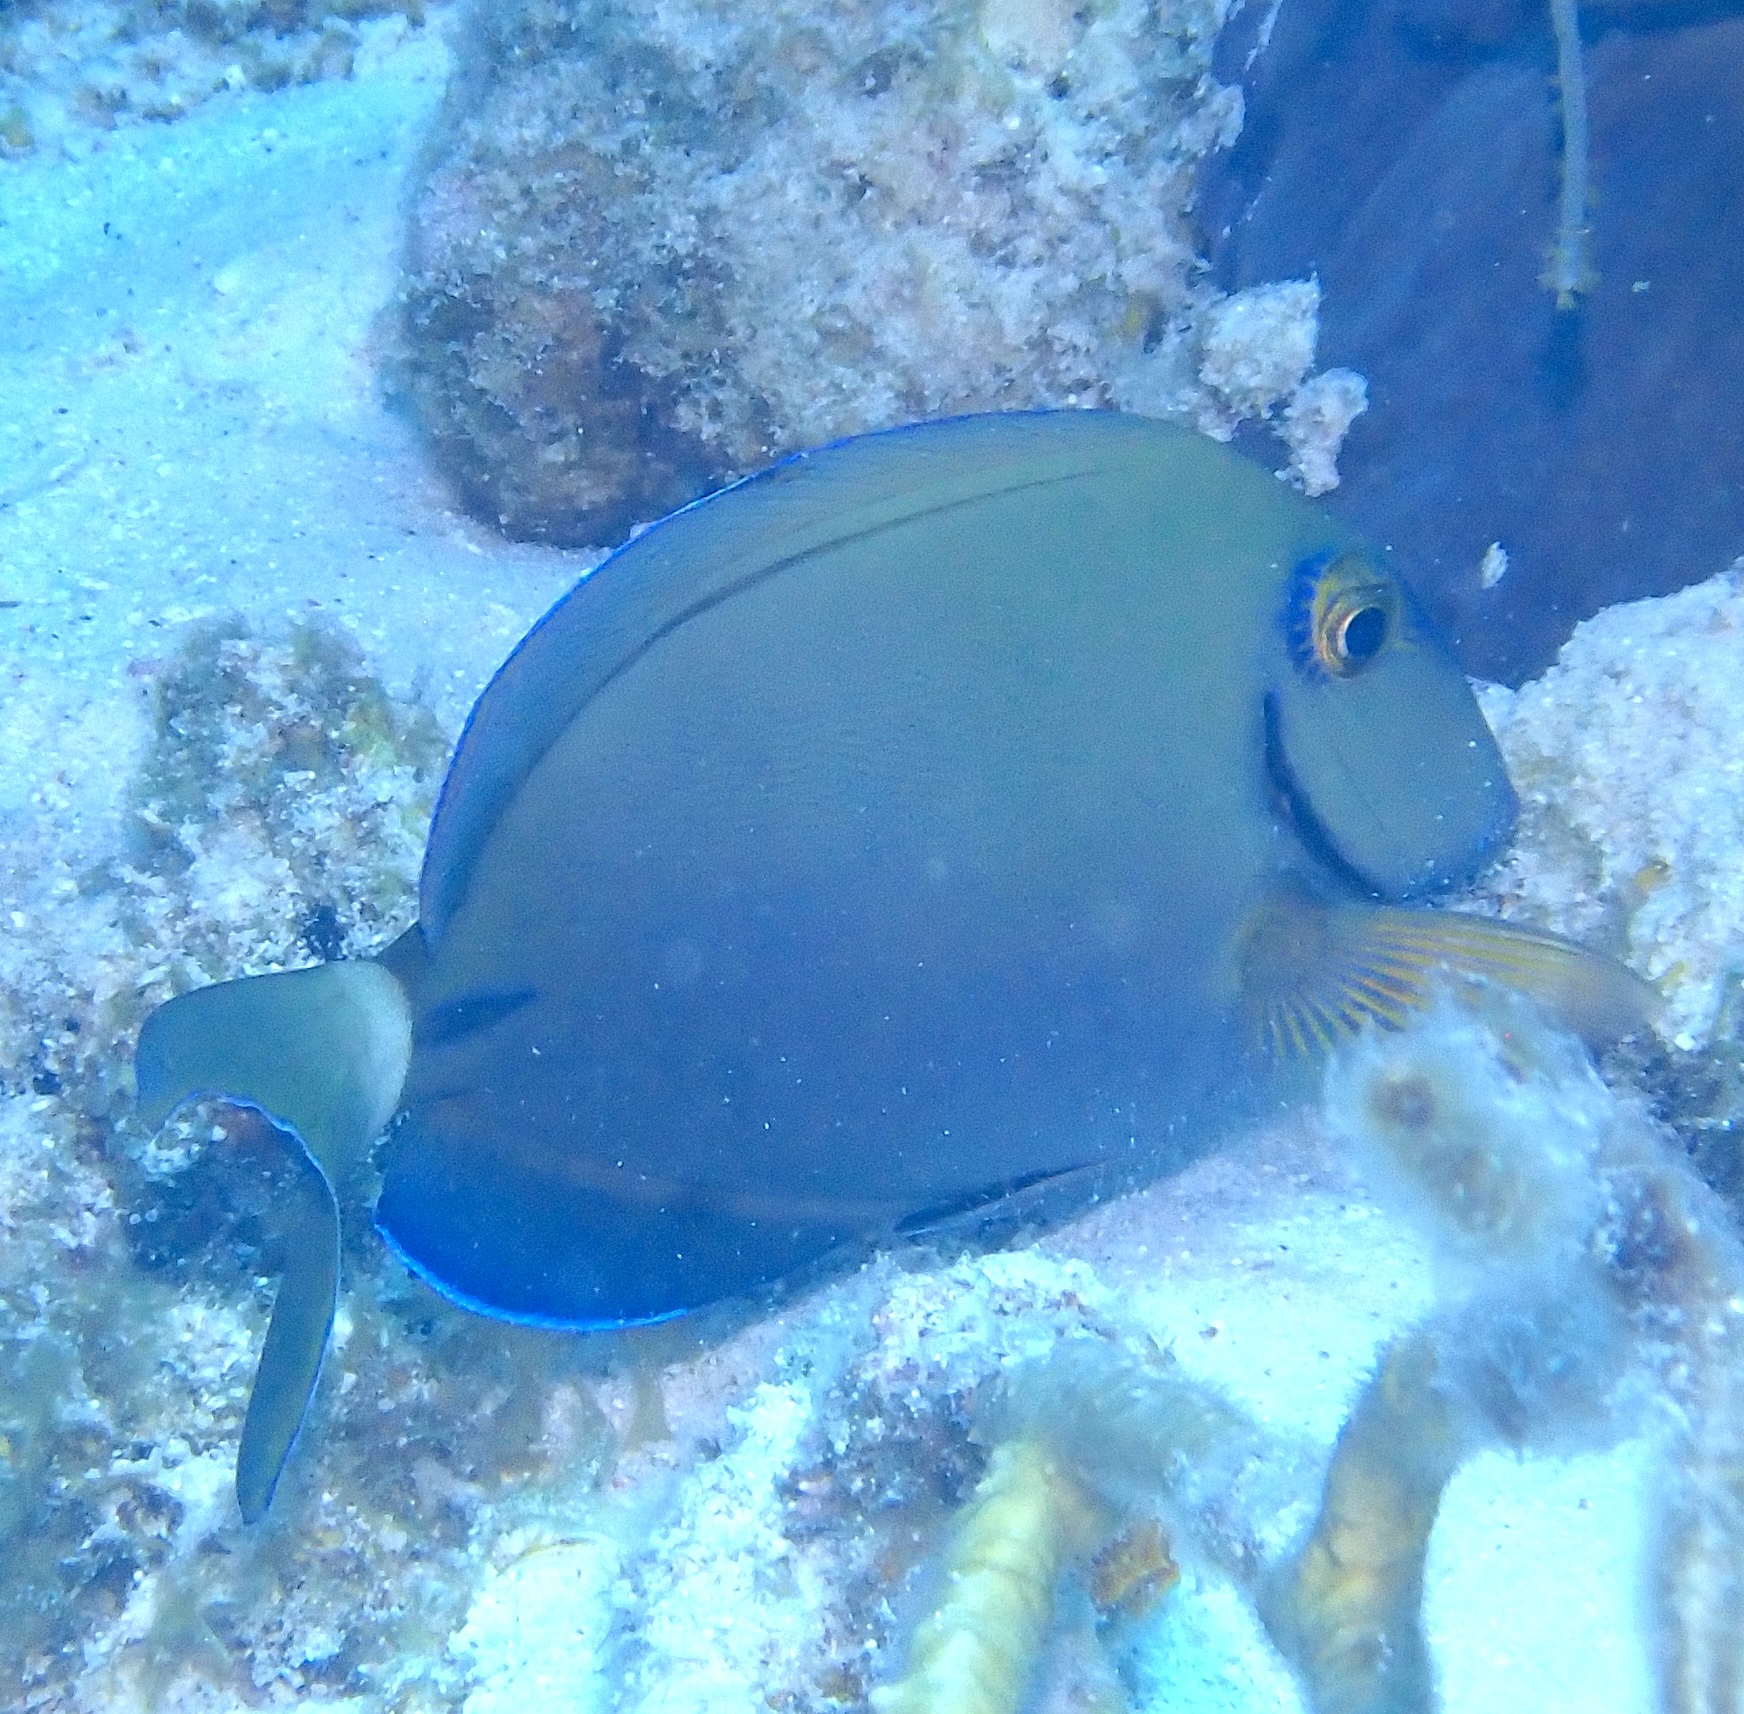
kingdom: Animalia
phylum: Chordata
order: Perciformes
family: Acanthuridae
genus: Acanthurus
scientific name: Acanthurus bahianus
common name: Ocean surgeon
